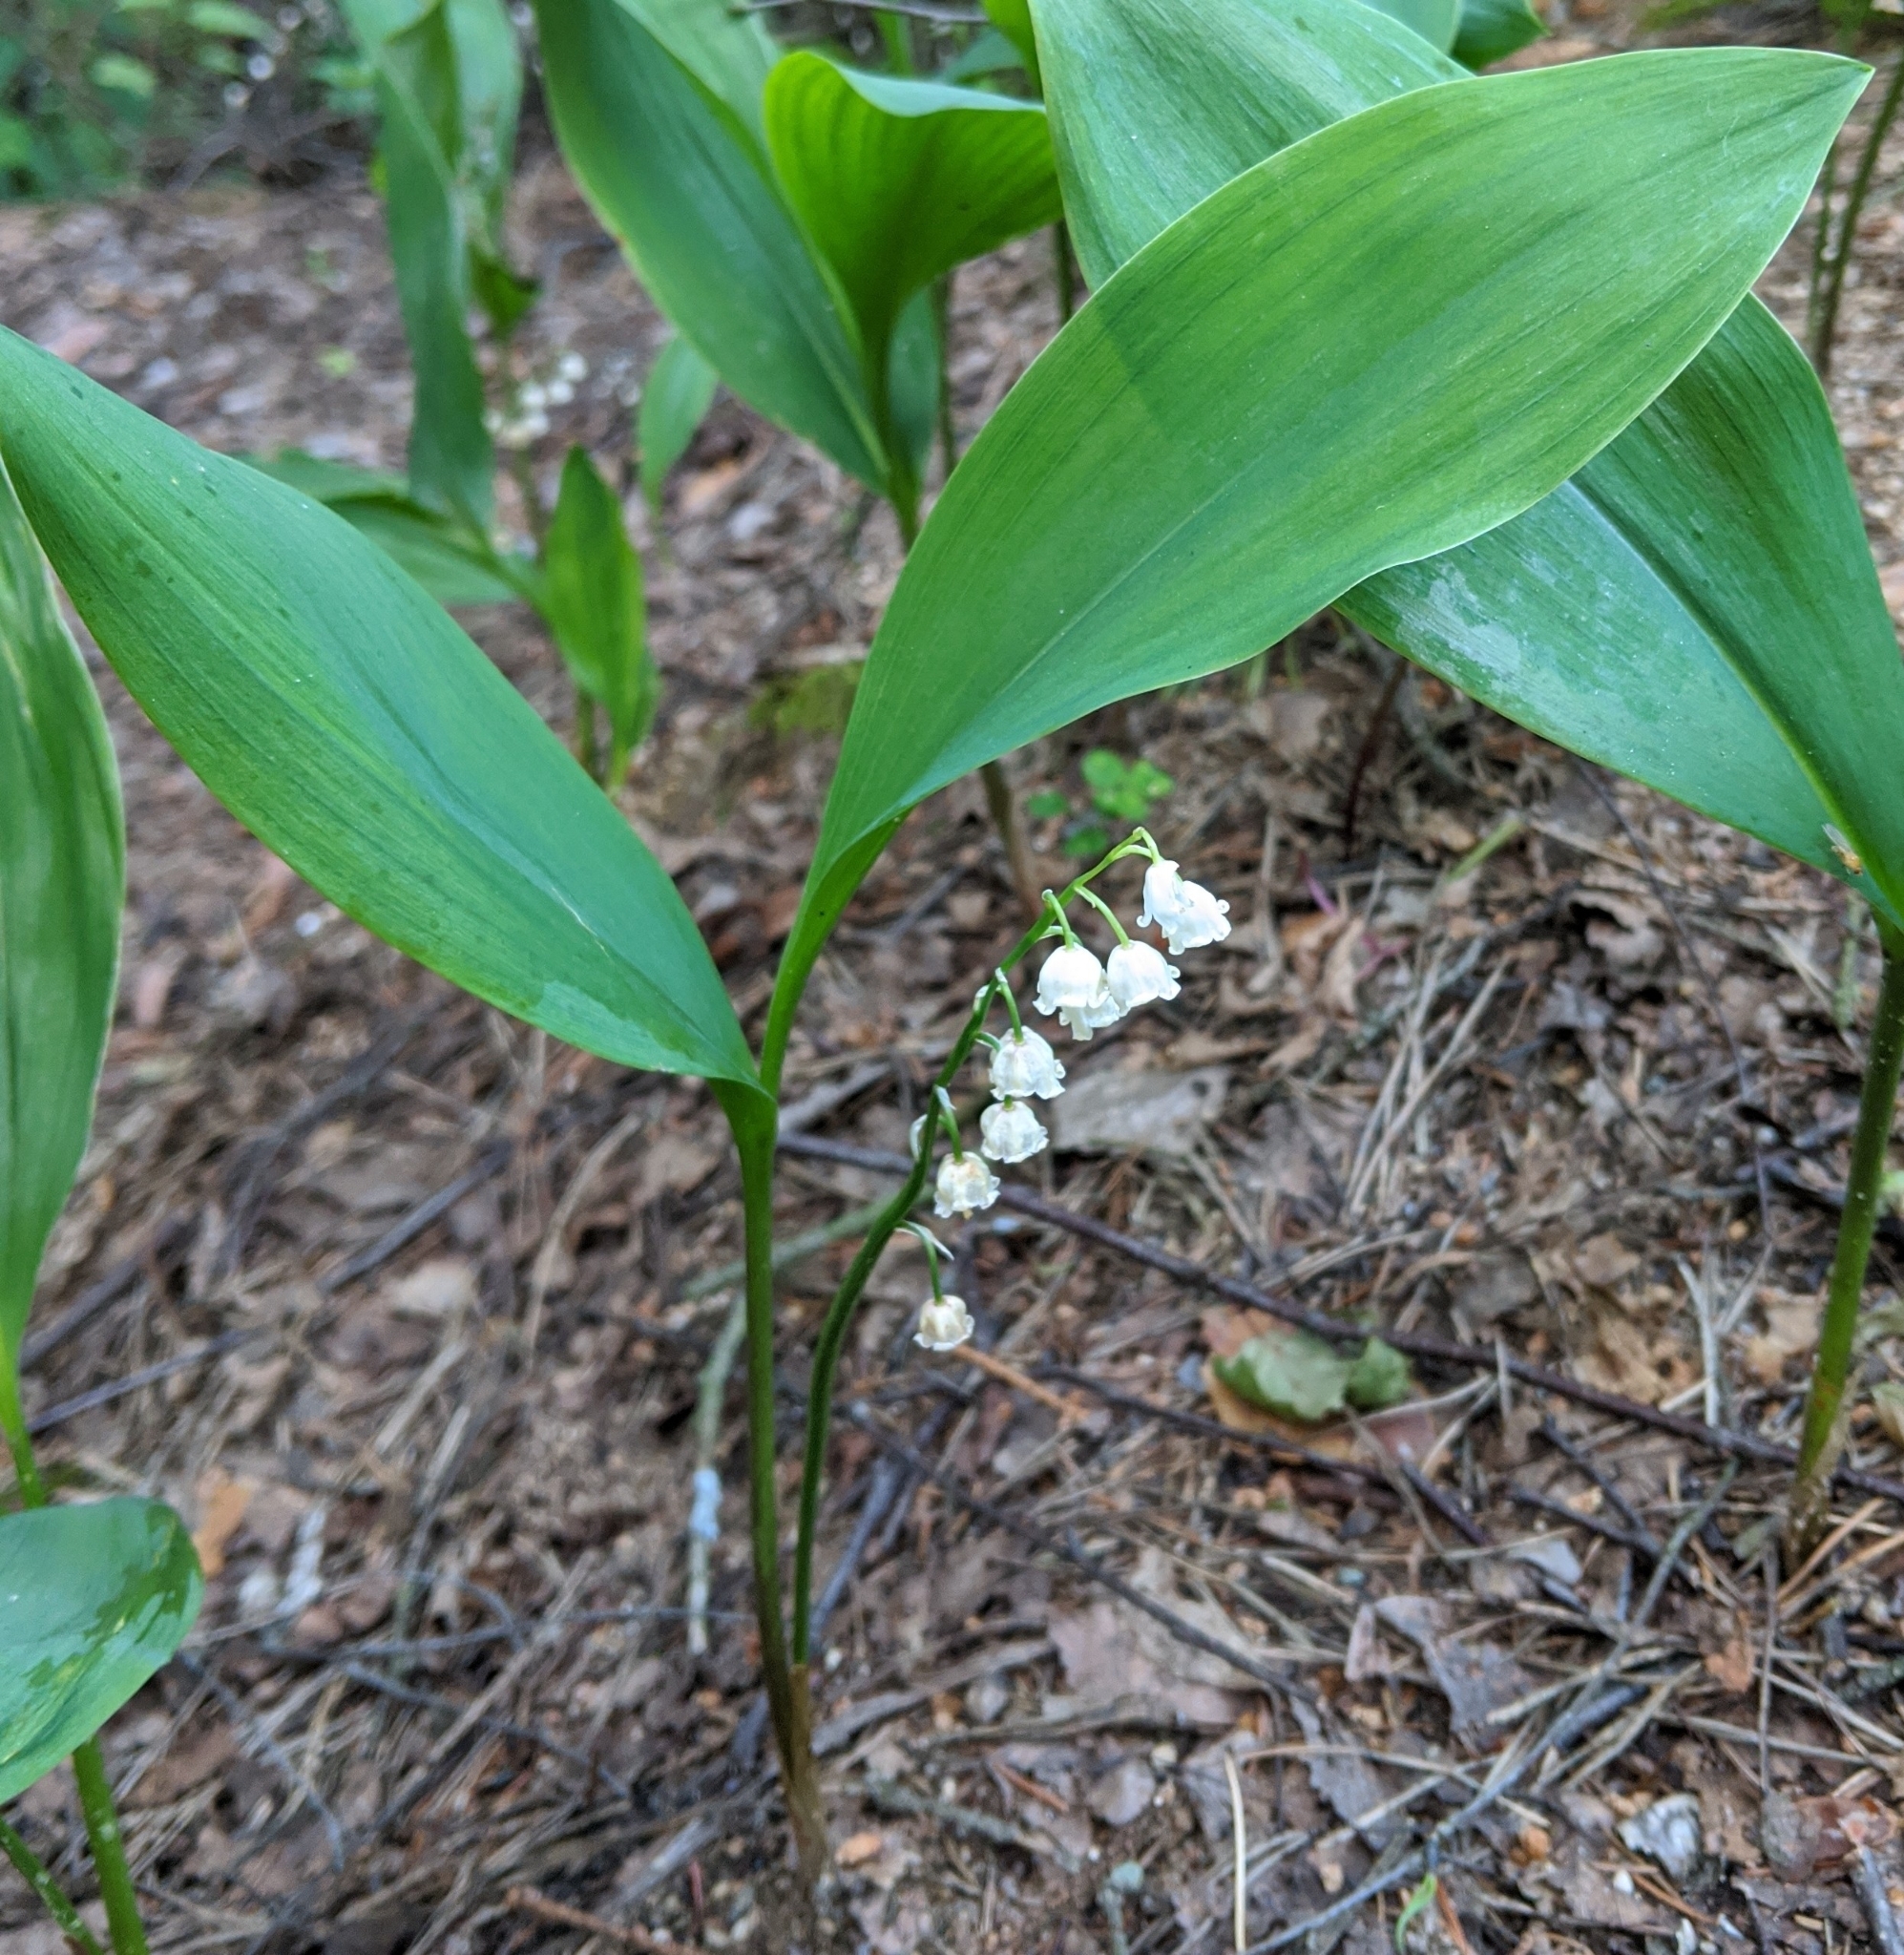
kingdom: Plantae
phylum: Tracheophyta
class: Liliopsida
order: Asparagales
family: Asparagaceae
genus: Convallaria
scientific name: Convallaria majalis
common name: Lily-of-the-valley
